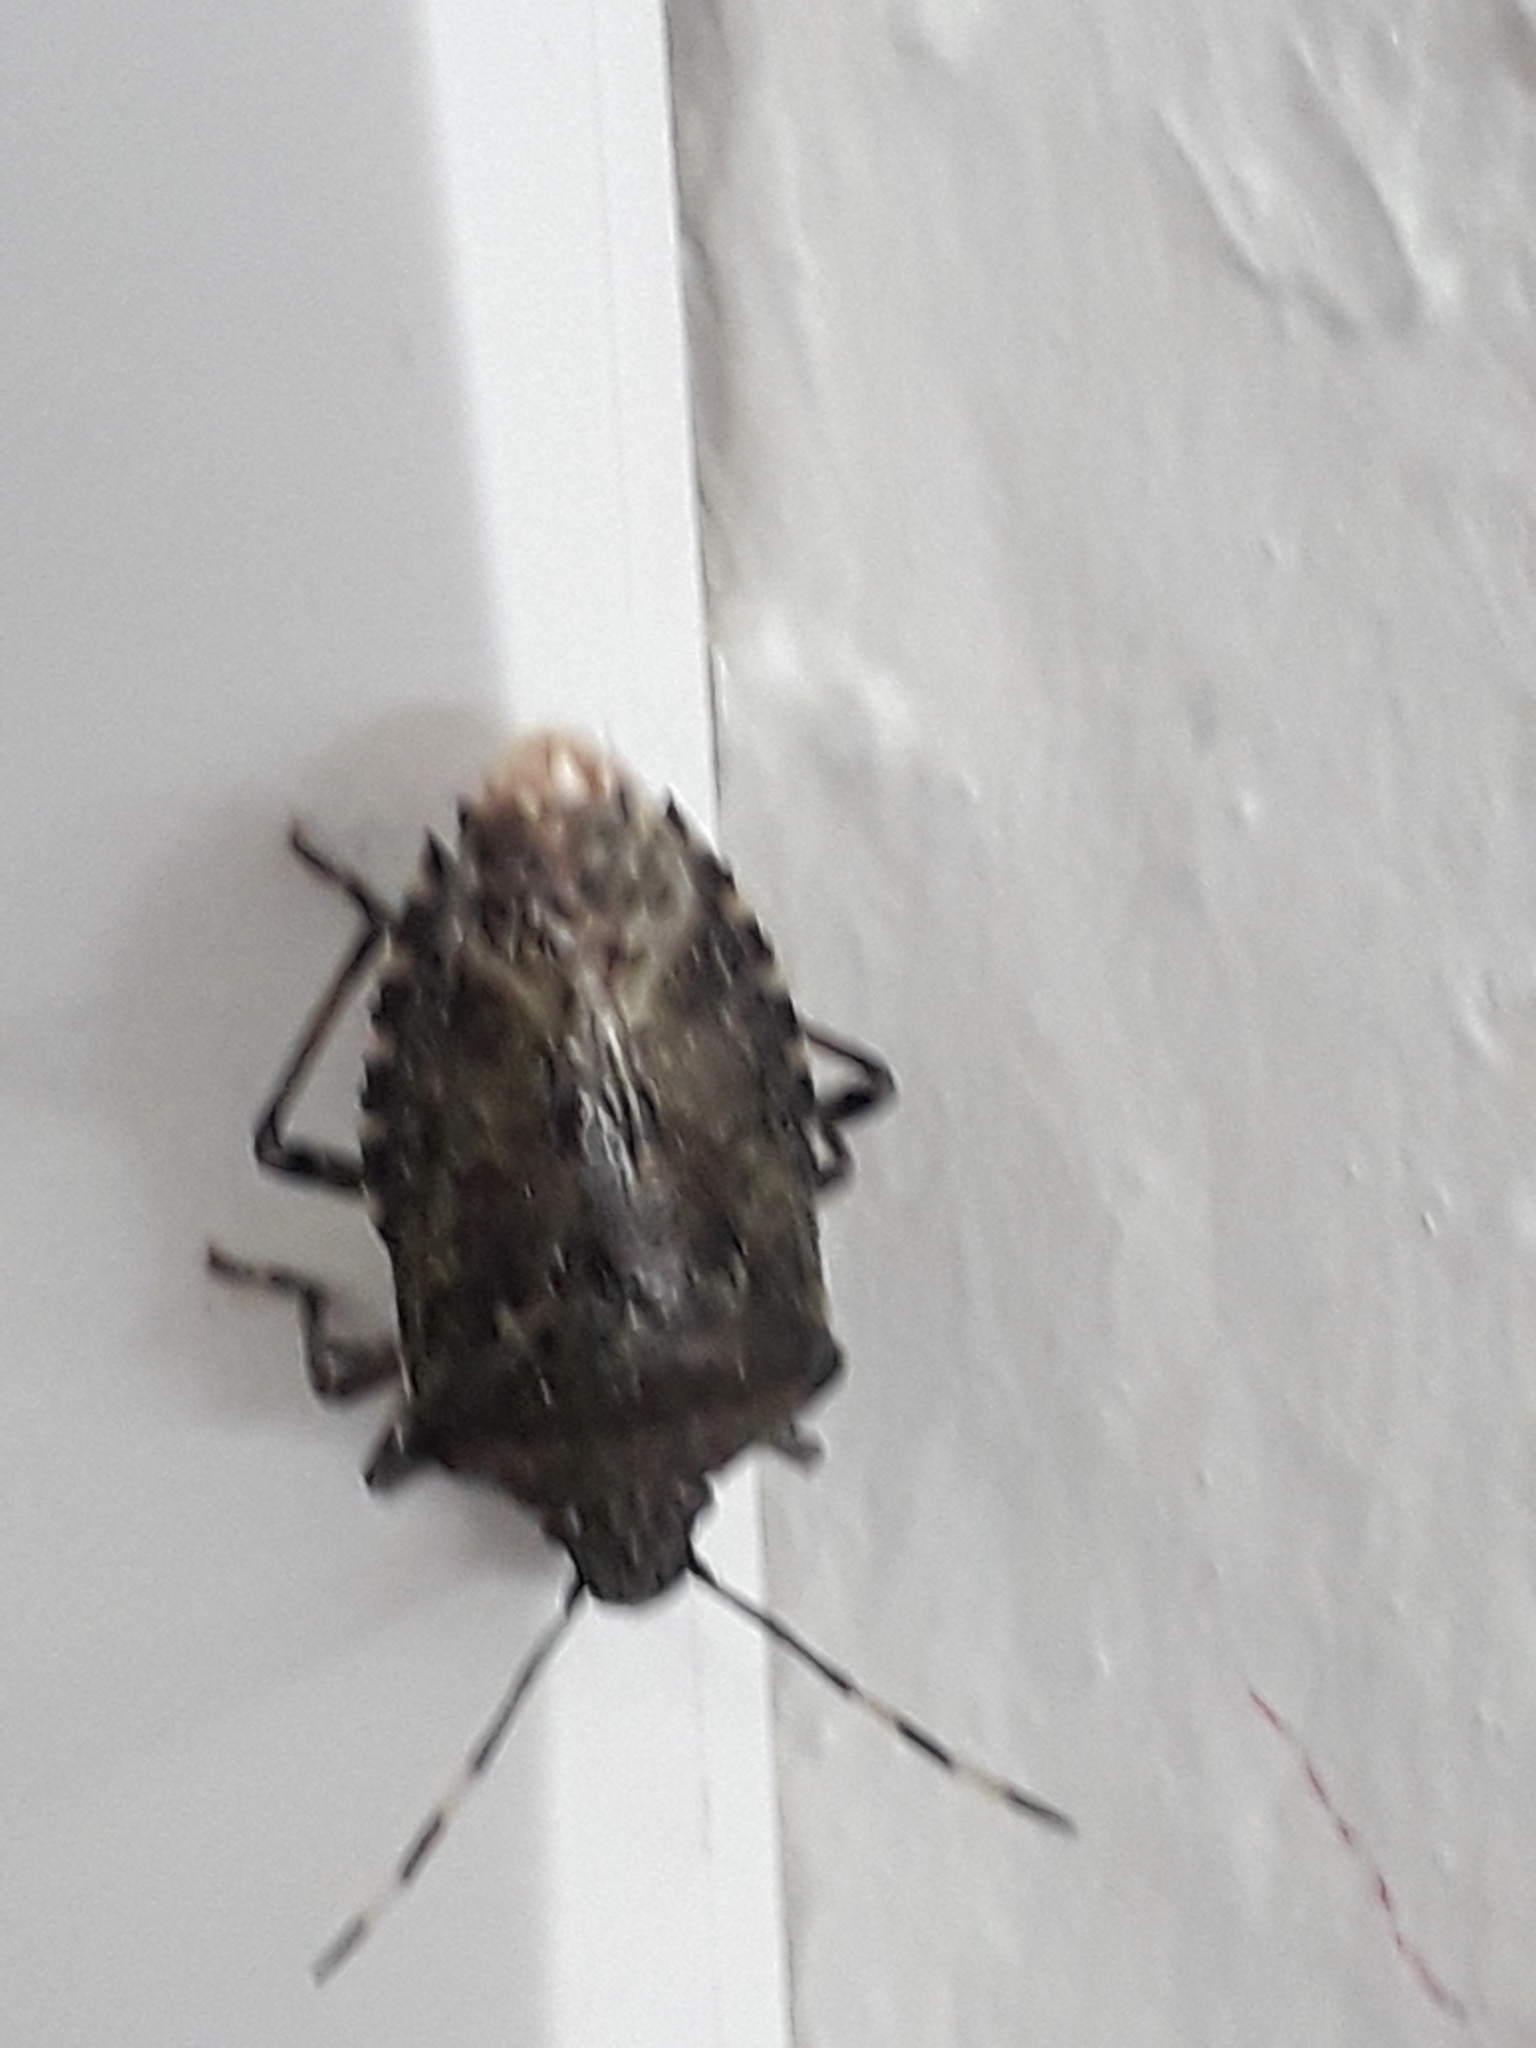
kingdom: Animalia
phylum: Arthropoda
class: Insecta
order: Hemiptera
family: Pentatomidae
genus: Rhaphigaster
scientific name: Rhaphigaster nebulosa
